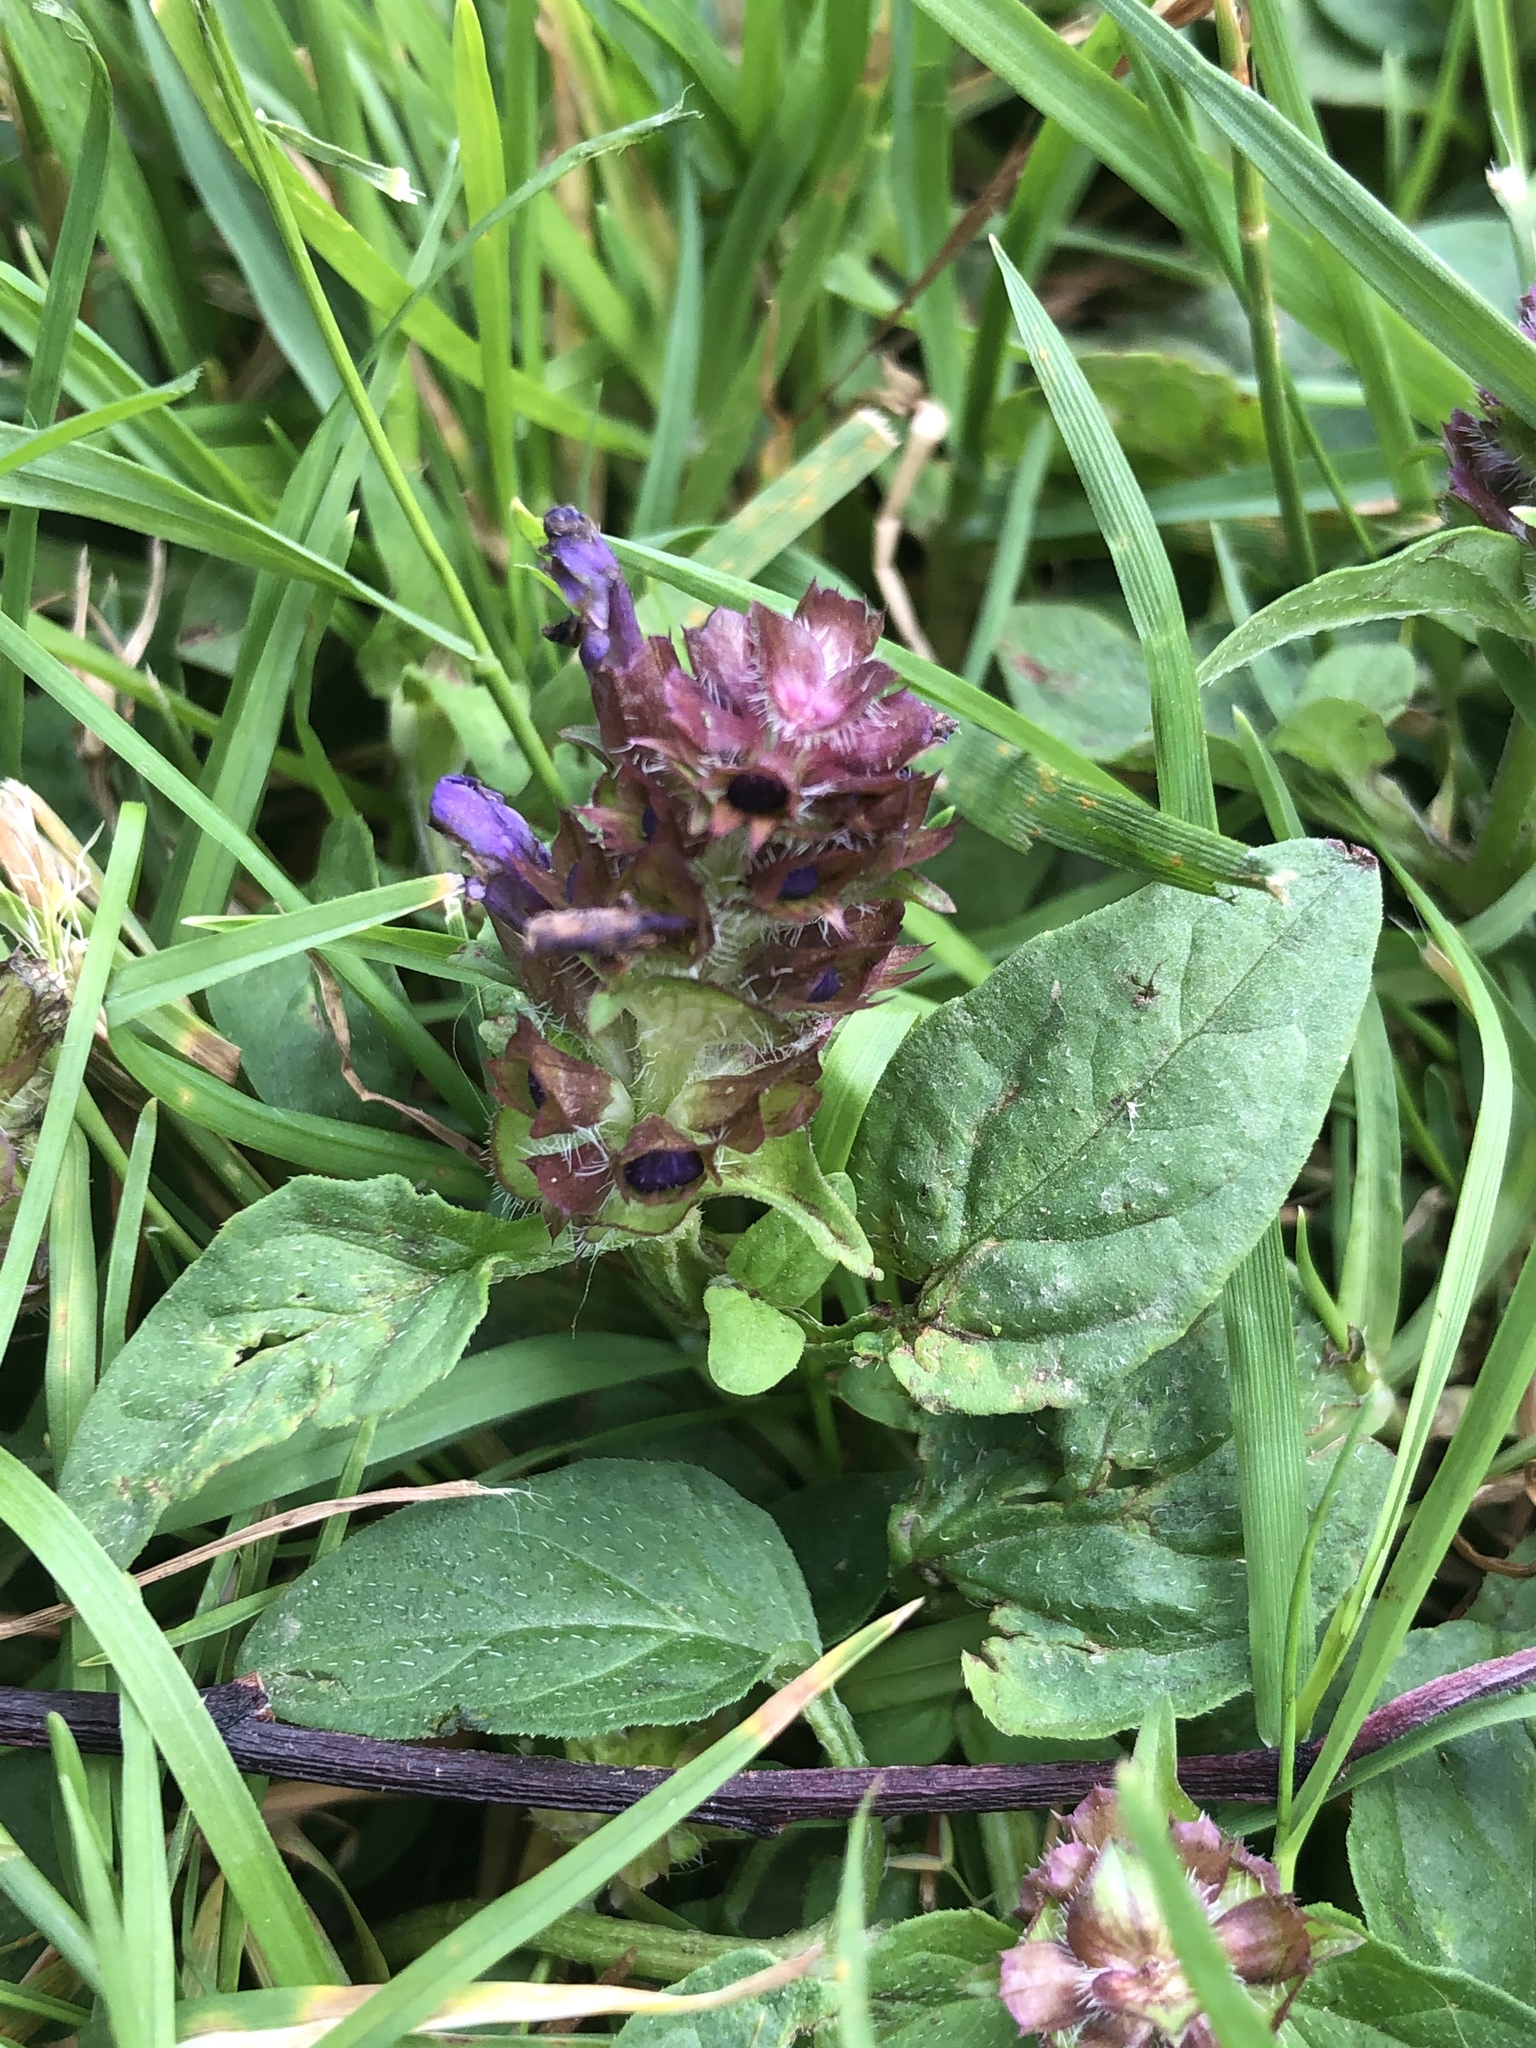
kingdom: Plantae
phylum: Tracheophyta
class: Magnoliopsida
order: Lamiales
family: Lamiaceae
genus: Prunella
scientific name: Prunella vulgaris
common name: Heal-all
